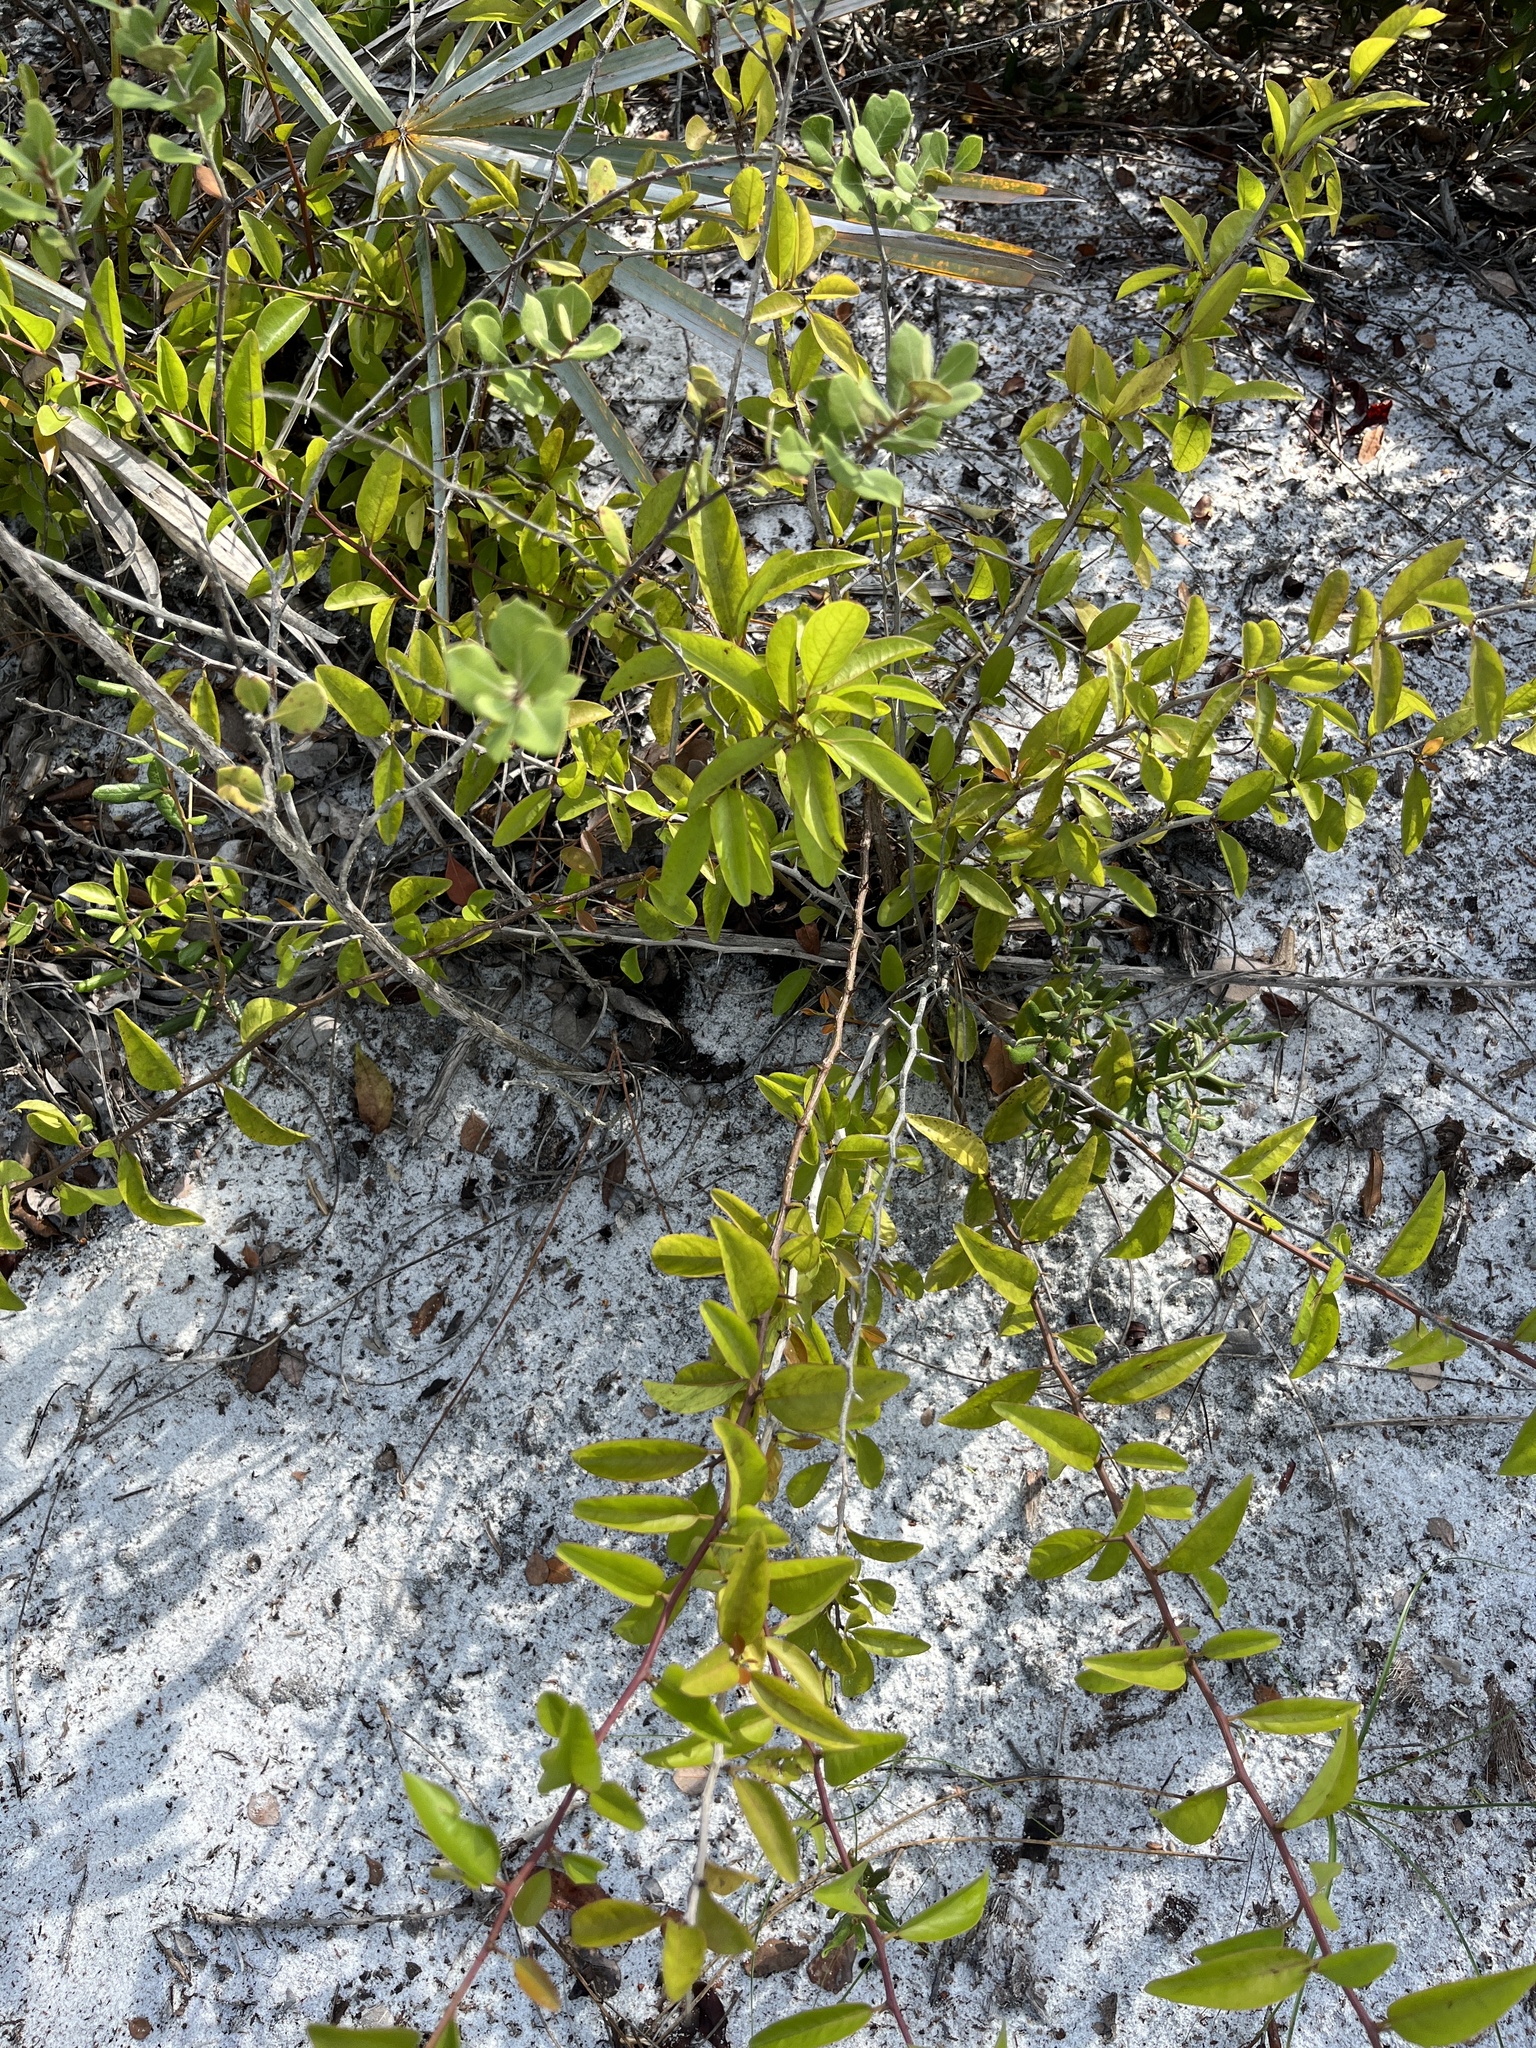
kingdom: Plantae
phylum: Tracheophyta
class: Magnoliopsida
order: Santalales
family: Ximeniaceae
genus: Ximenia
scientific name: Ximenia americana
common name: Tallowwood
